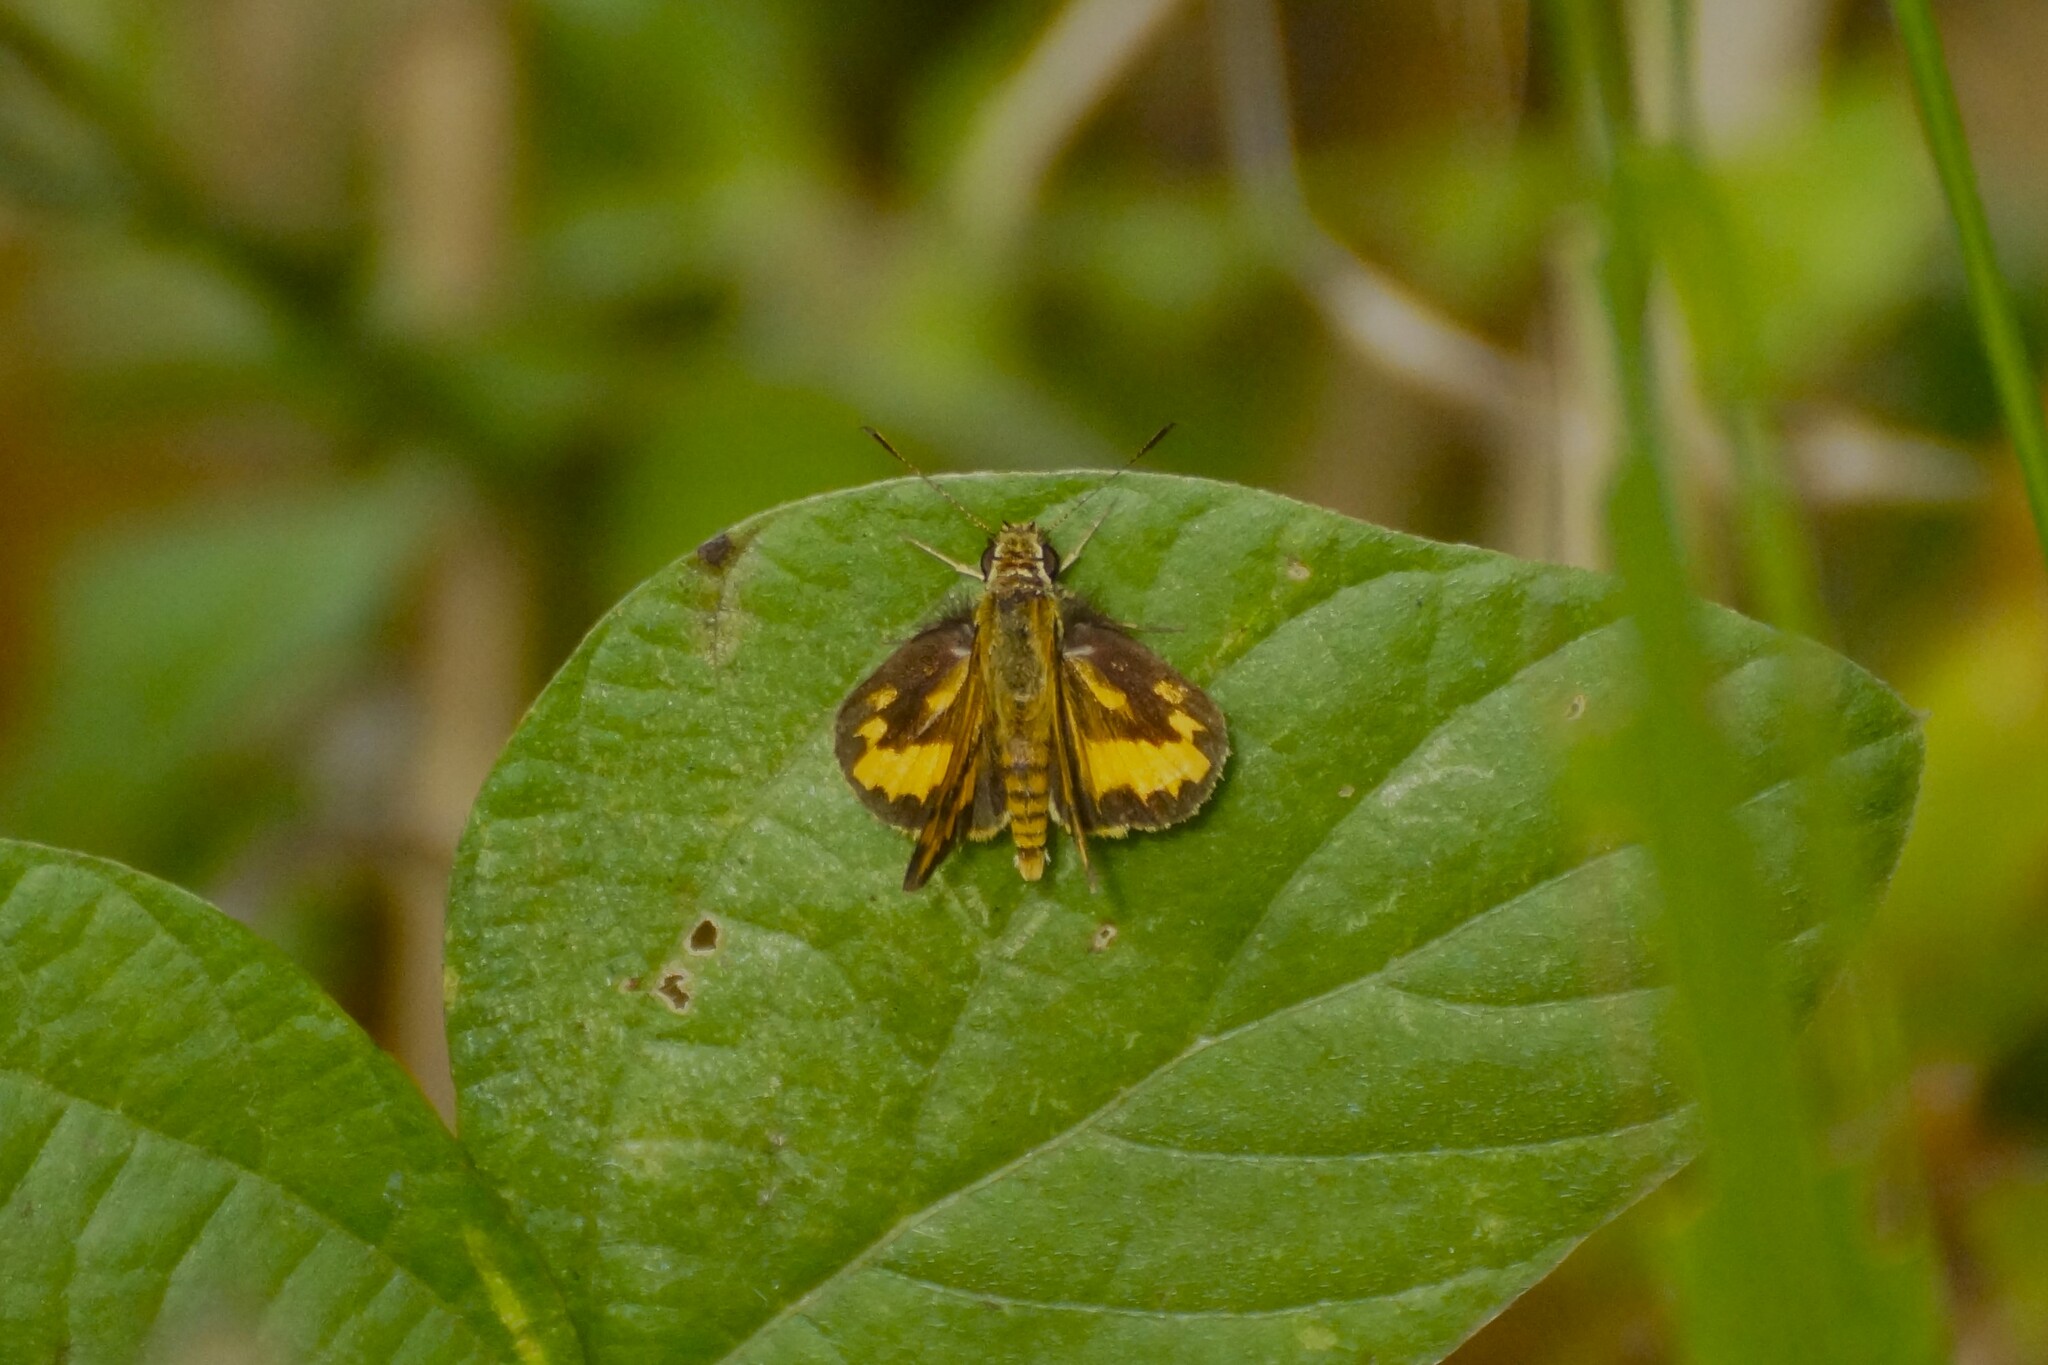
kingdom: Animalia
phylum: Arthropoda
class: Insecta
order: Lepidoptera
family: Hesperiidae
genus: Suniana
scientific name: Suniana sunias
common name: Wide-brand grass-dart
